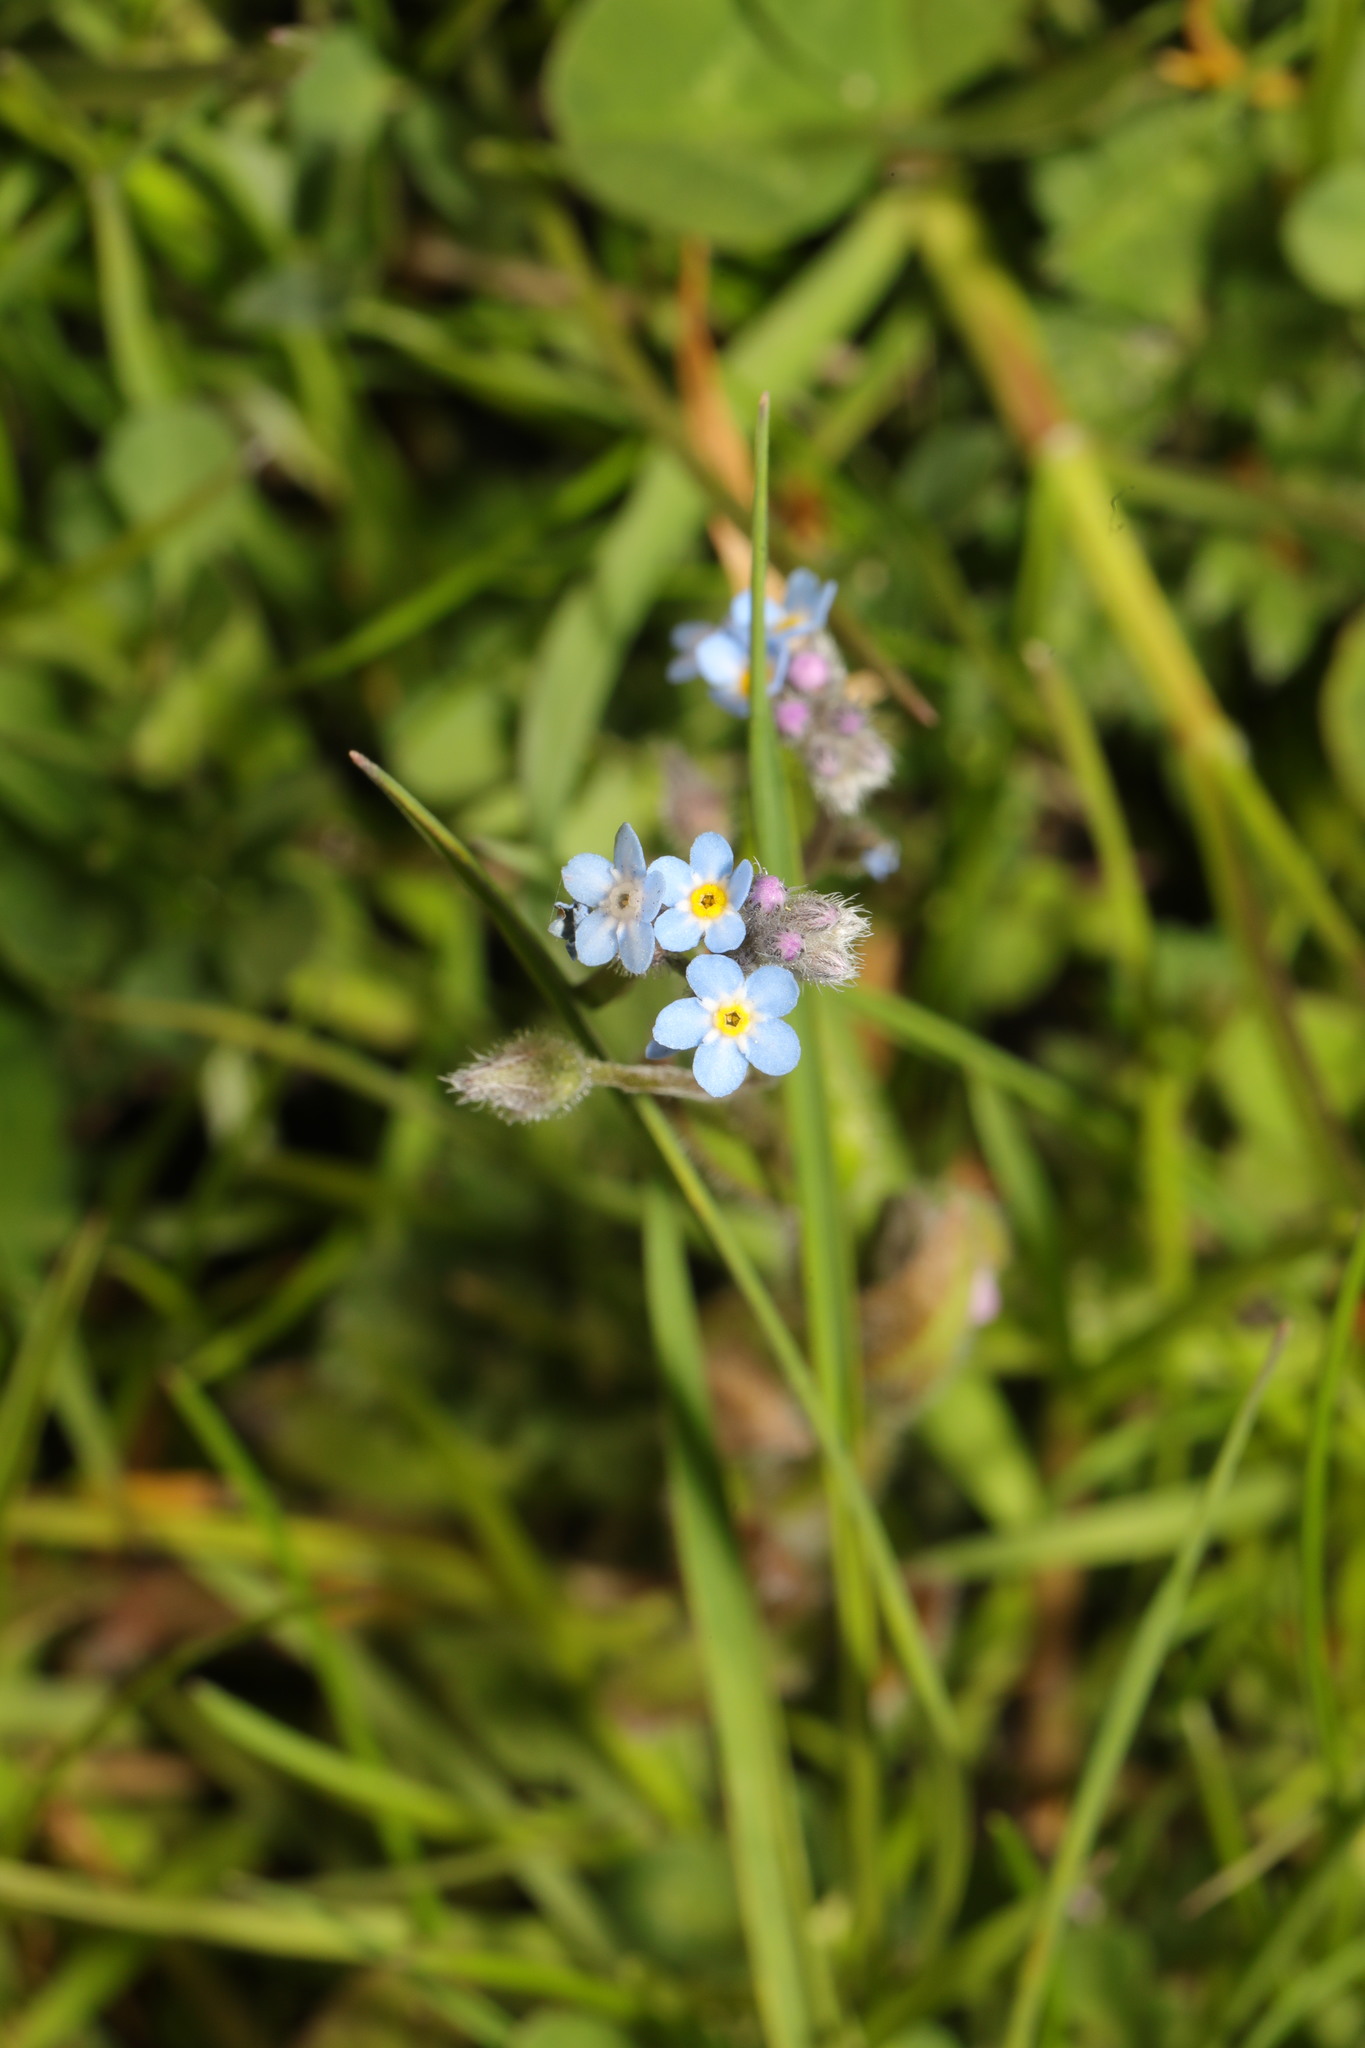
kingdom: Plantae
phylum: Tracheophyta
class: Magnoliopsida
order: Boraginales
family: Boraginaceae
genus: Myosotis
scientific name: Myosotis arvensis
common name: Field forget-me-not
